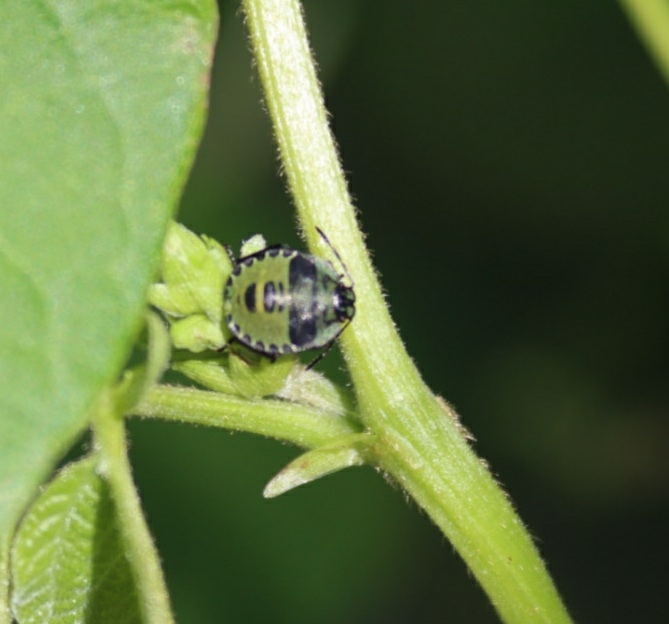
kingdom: Animalia
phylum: Arthropoda
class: Insecta
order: Hemiptera
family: Pentatomidae
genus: Palomena
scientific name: Palomena prasina
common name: Green shieldbug
